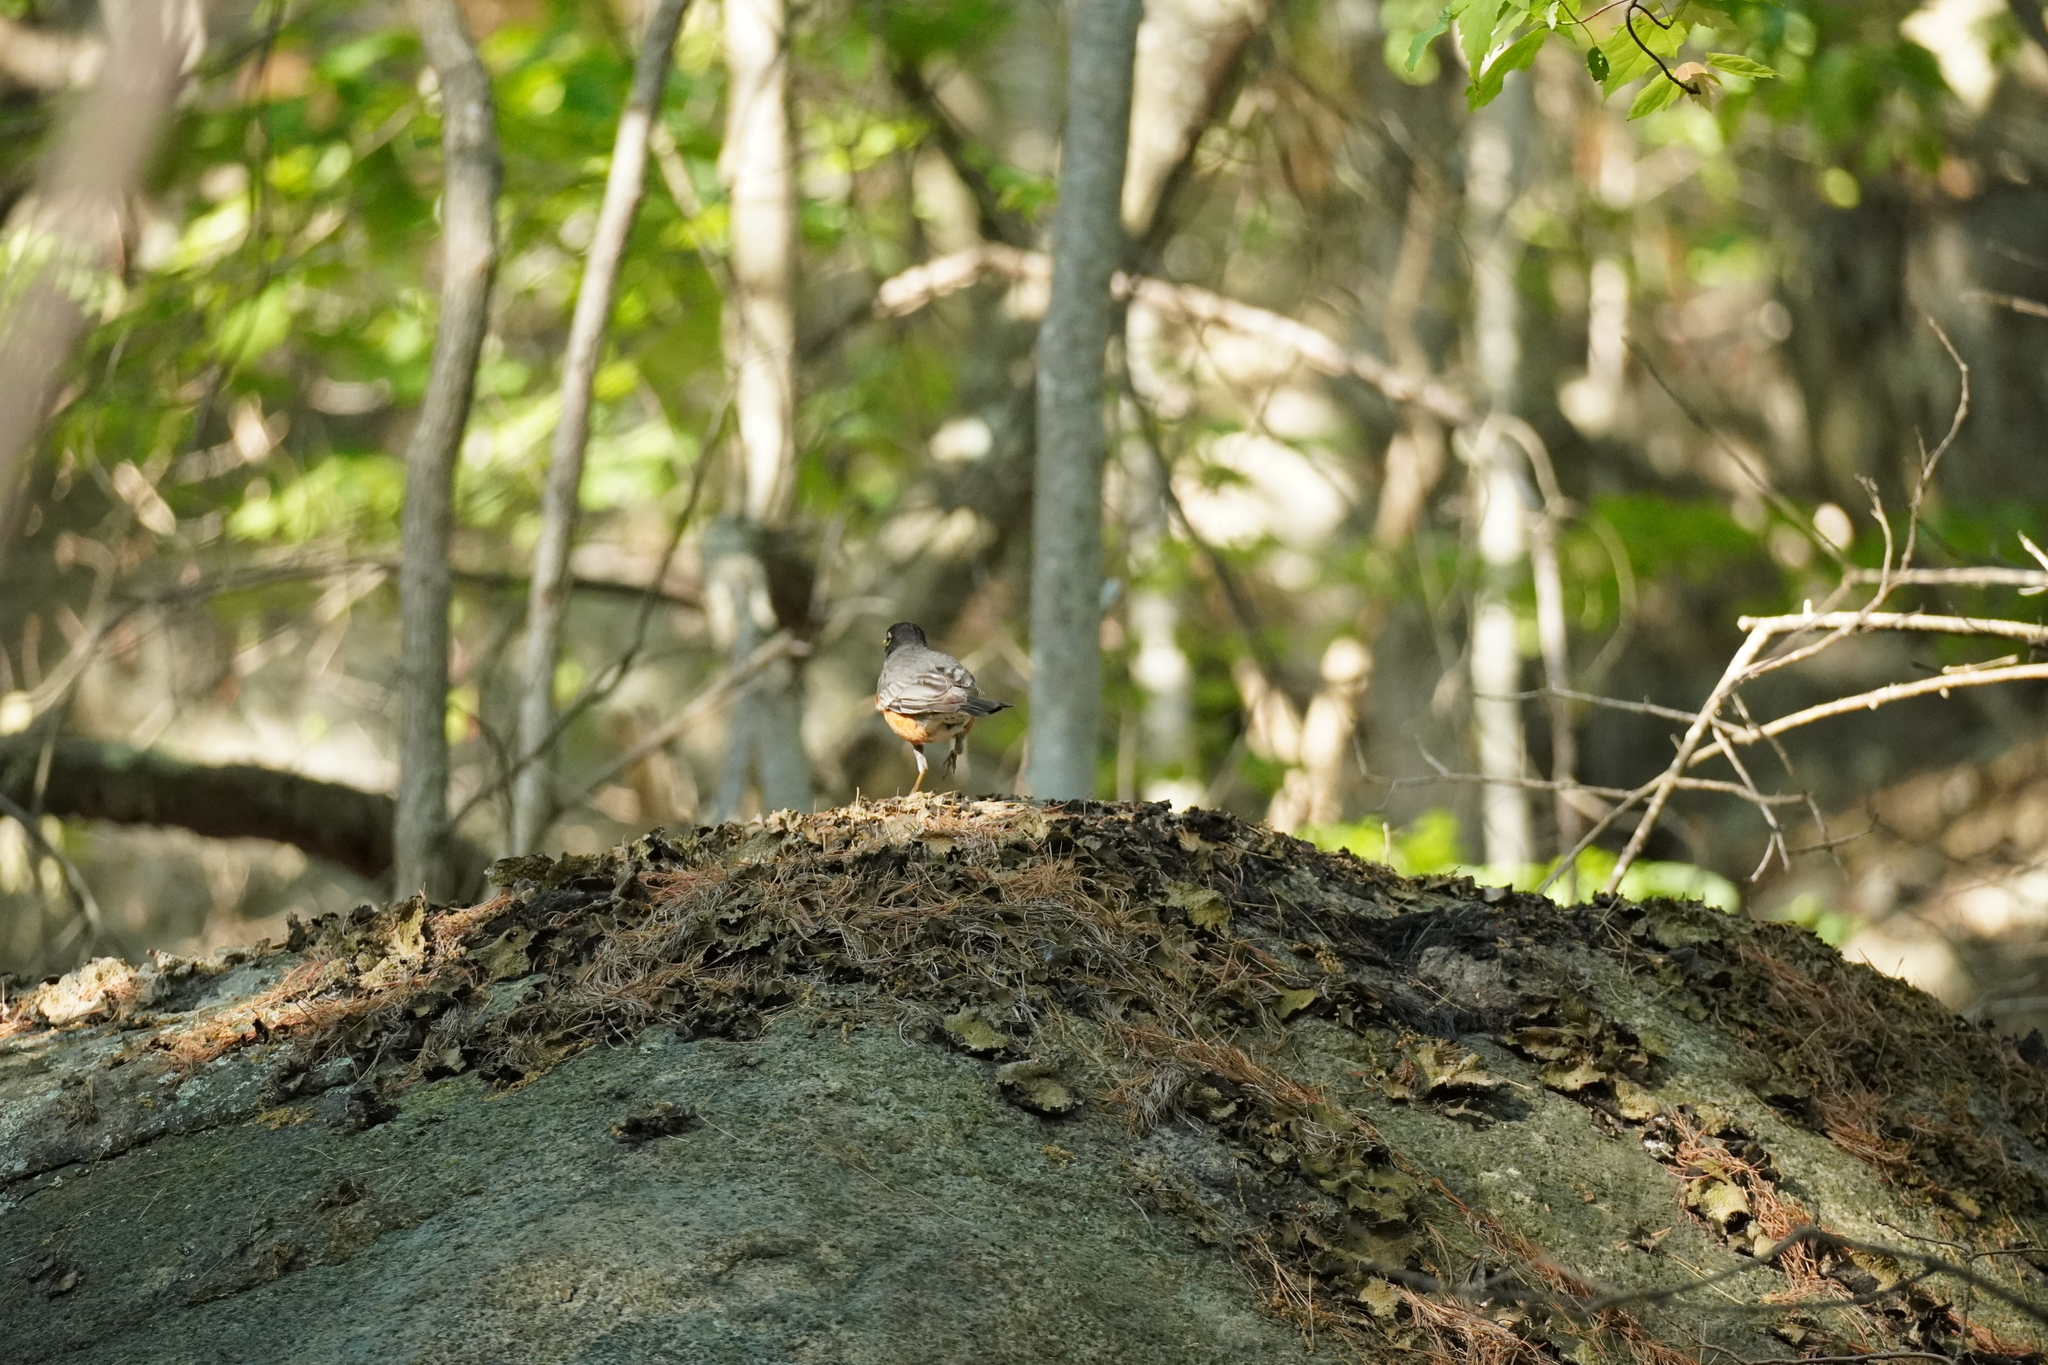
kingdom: Animalia
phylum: Chordata
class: Aves
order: Passeriformes
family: Turdidae
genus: Turdus
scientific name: Turdus migratorius
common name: American robin
